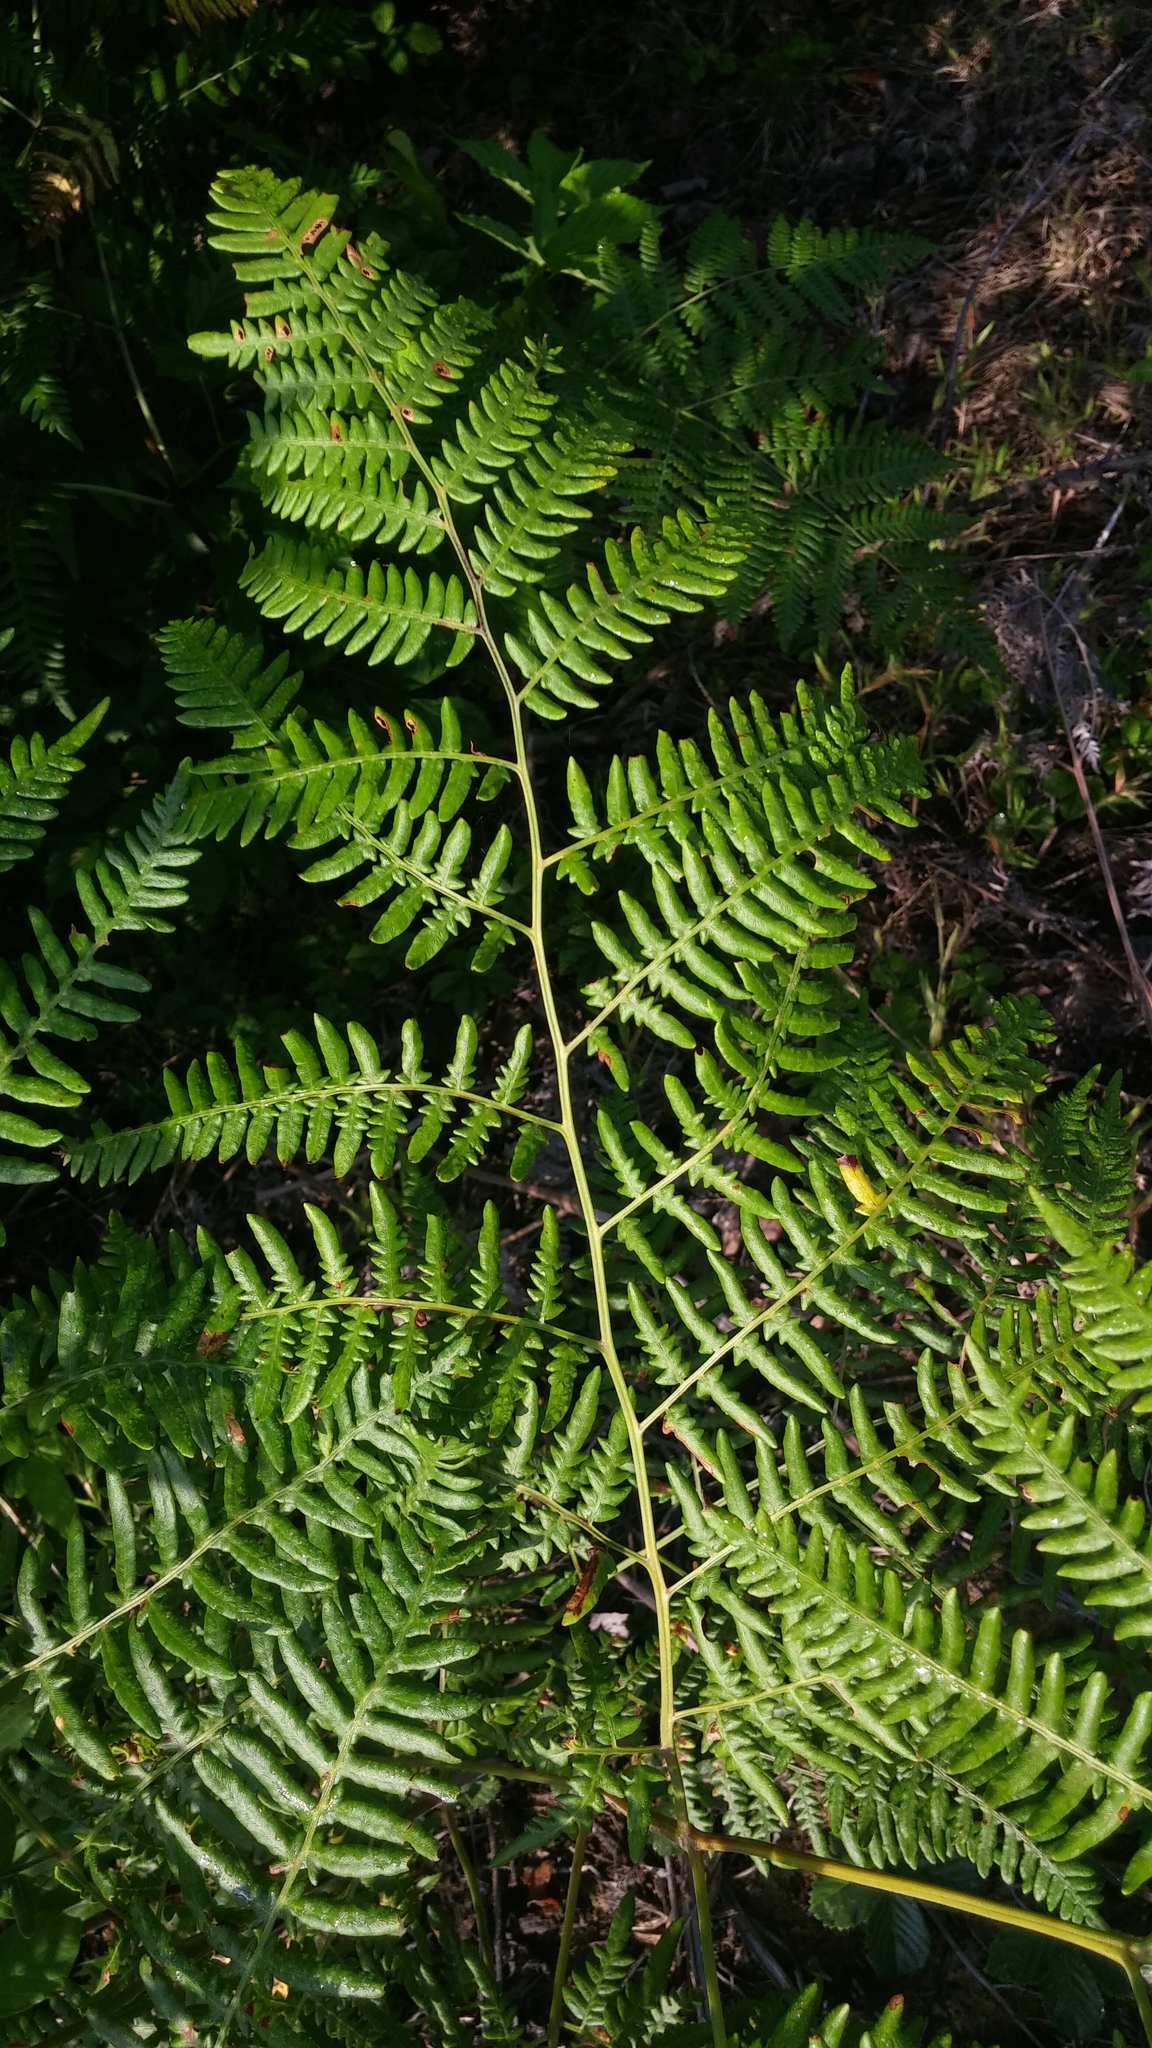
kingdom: Plantae
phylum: Tracheophyta
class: Polypodiopsida
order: Polypodiales
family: Dennstaedtiaceae
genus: Pteridium
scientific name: Pteridium aquilinum
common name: Bracken
